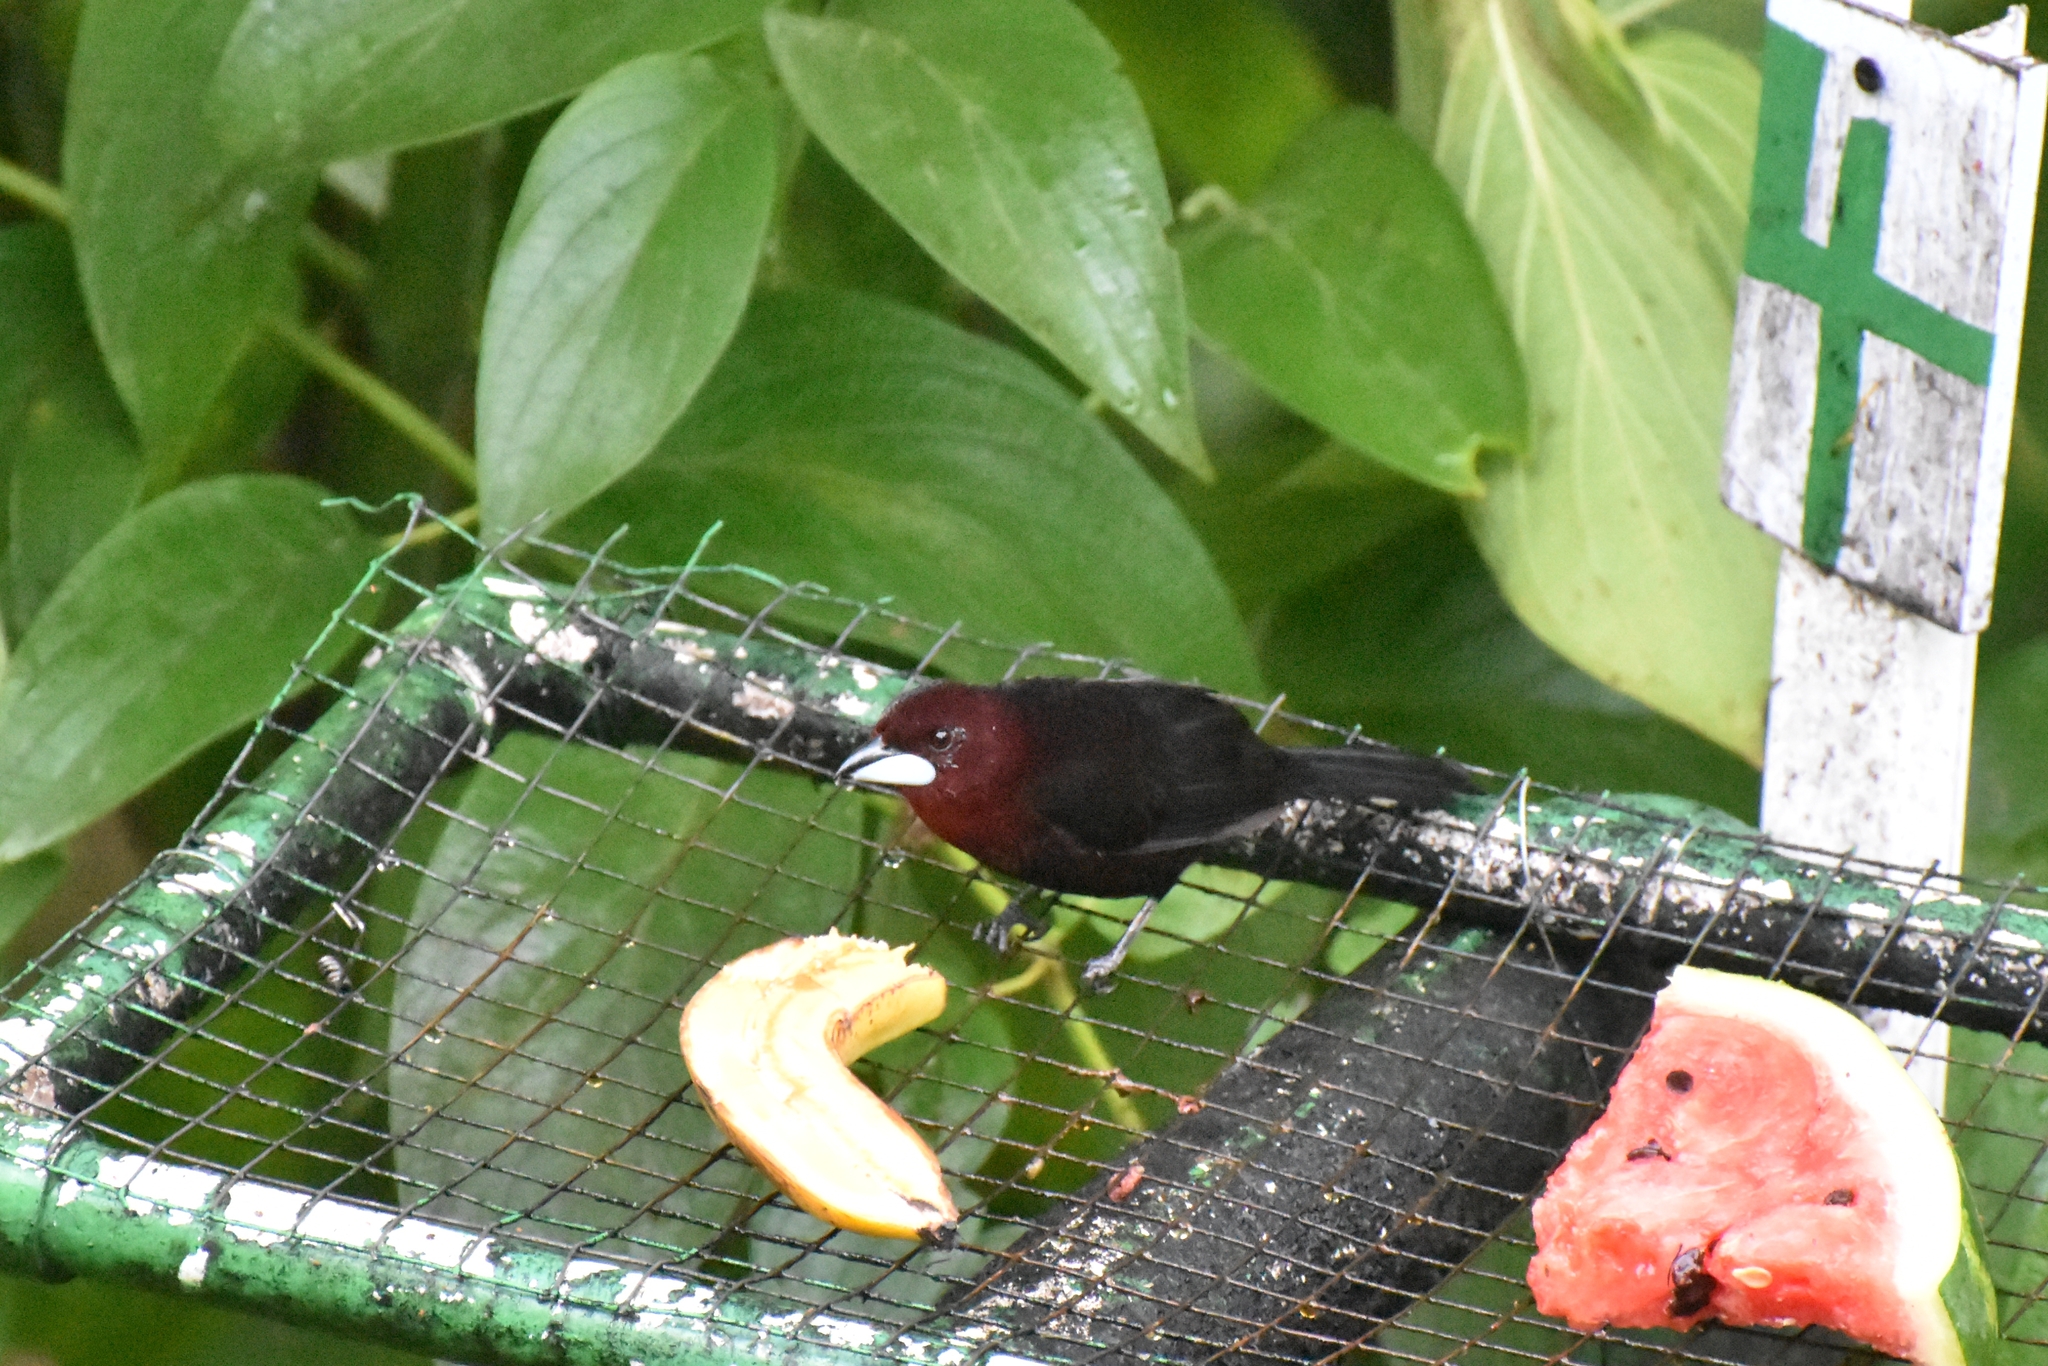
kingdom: Animalia
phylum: Chordata
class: Aves
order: Passeriformes
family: Thraupidae
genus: Ramphocelus
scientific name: Ramphocelus carbo
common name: Silver-beaked tanager
